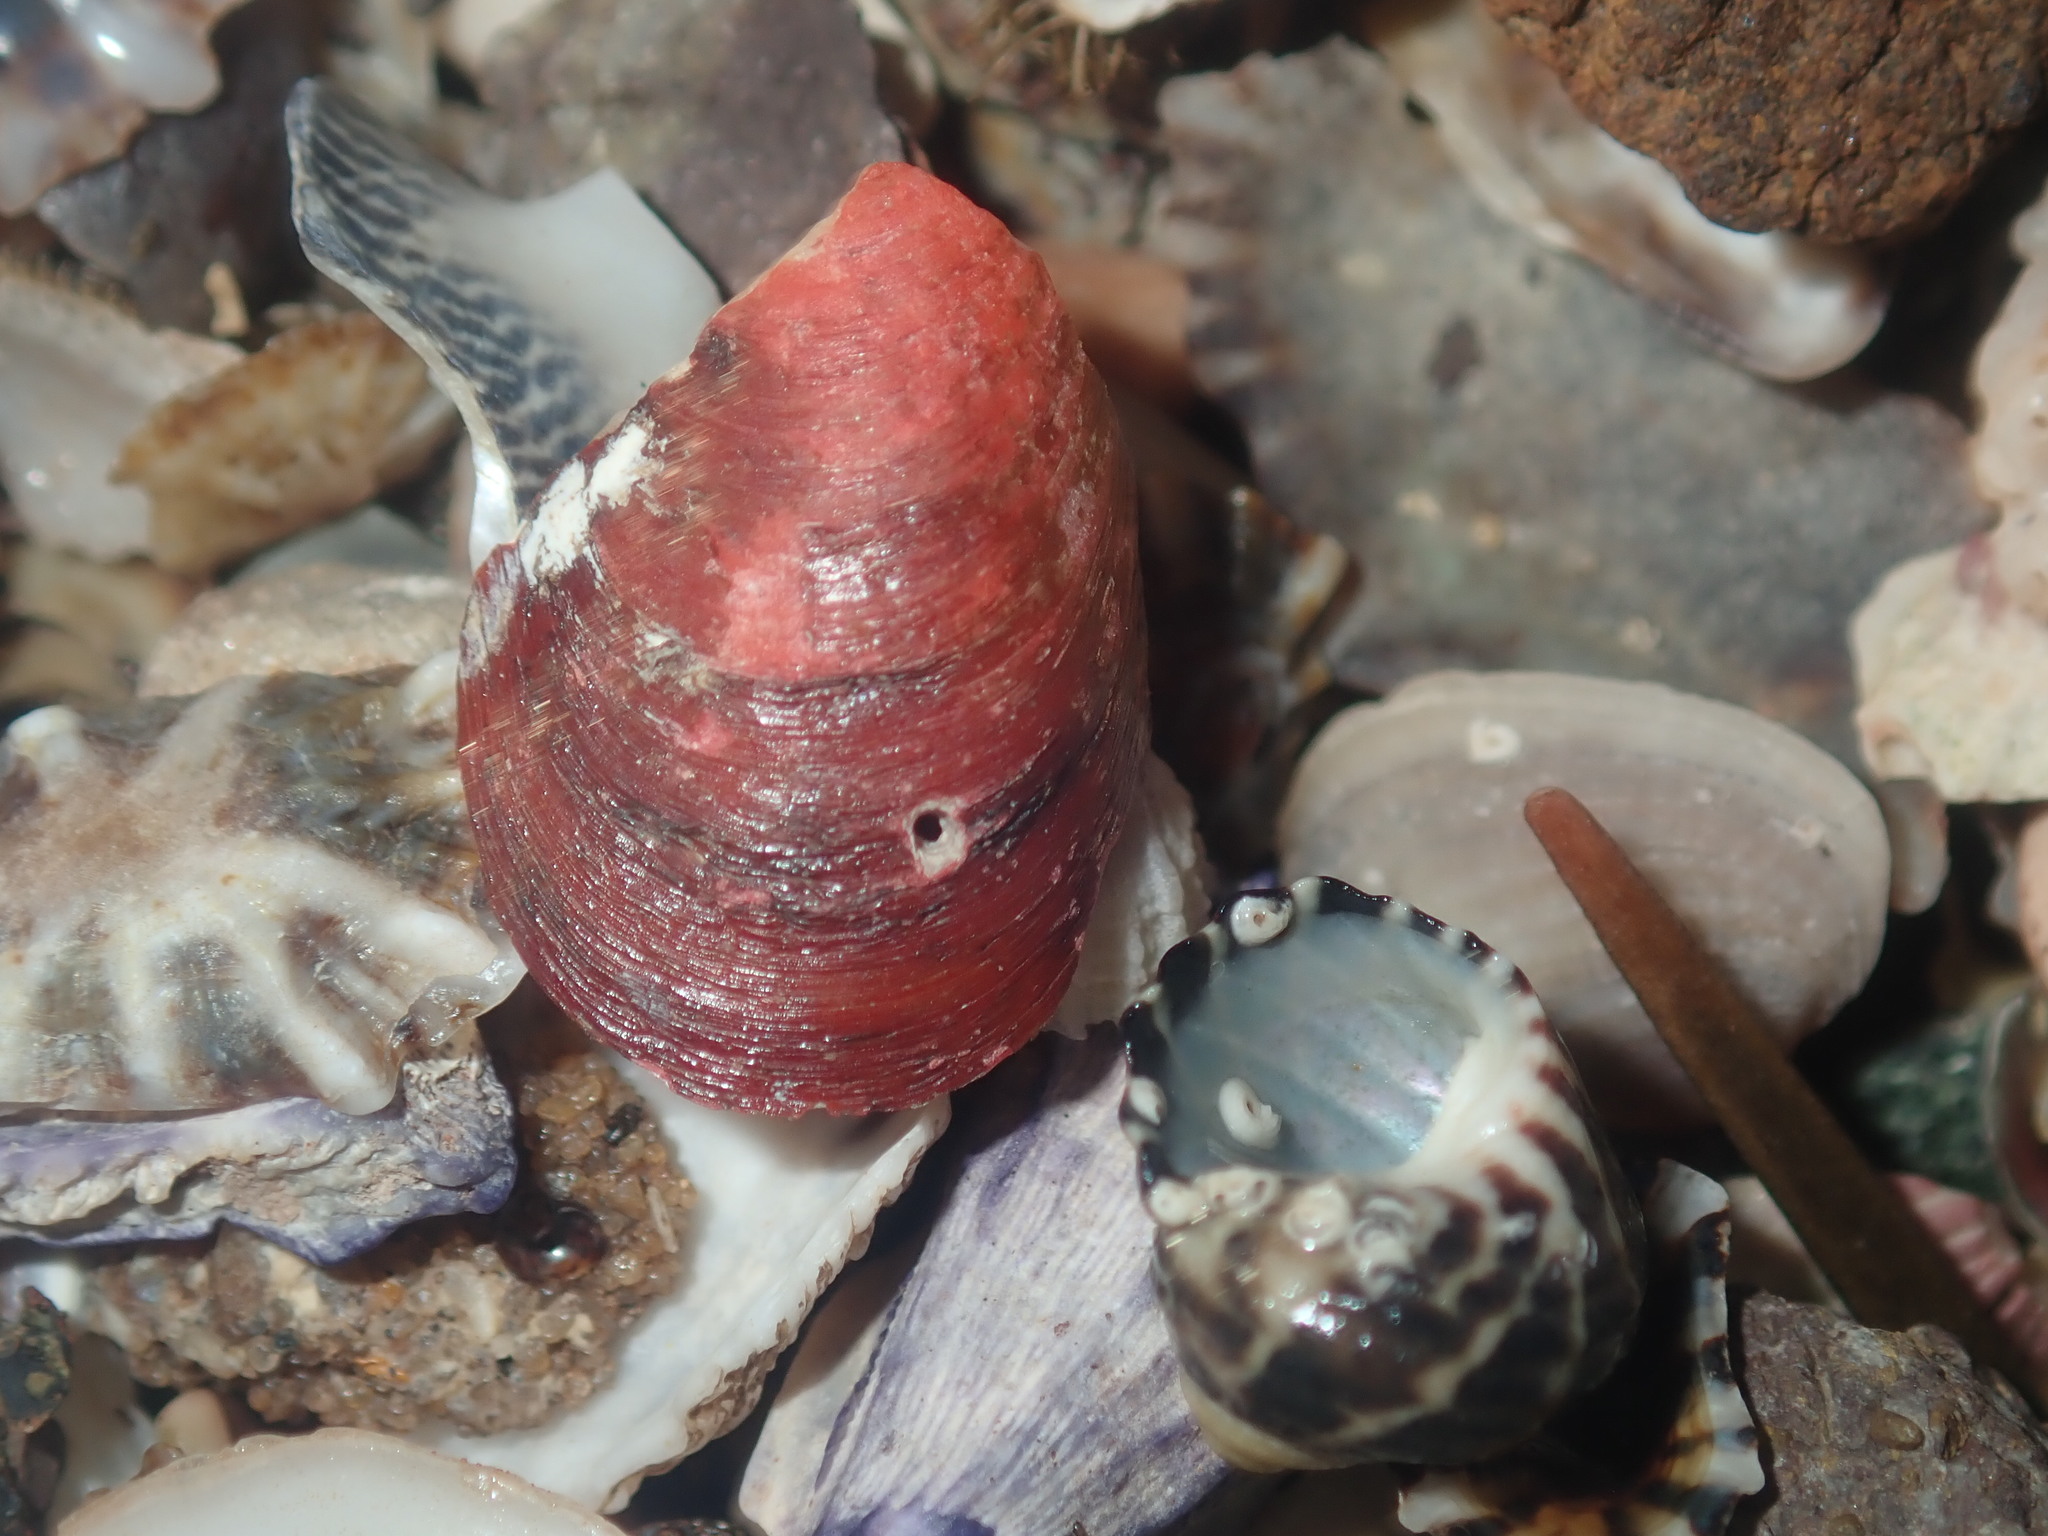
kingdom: Animalia
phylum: Mollusca
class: Bivalvia
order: Mytilida
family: Mytilidae
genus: Modiolus
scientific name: Modiolus areolatus
